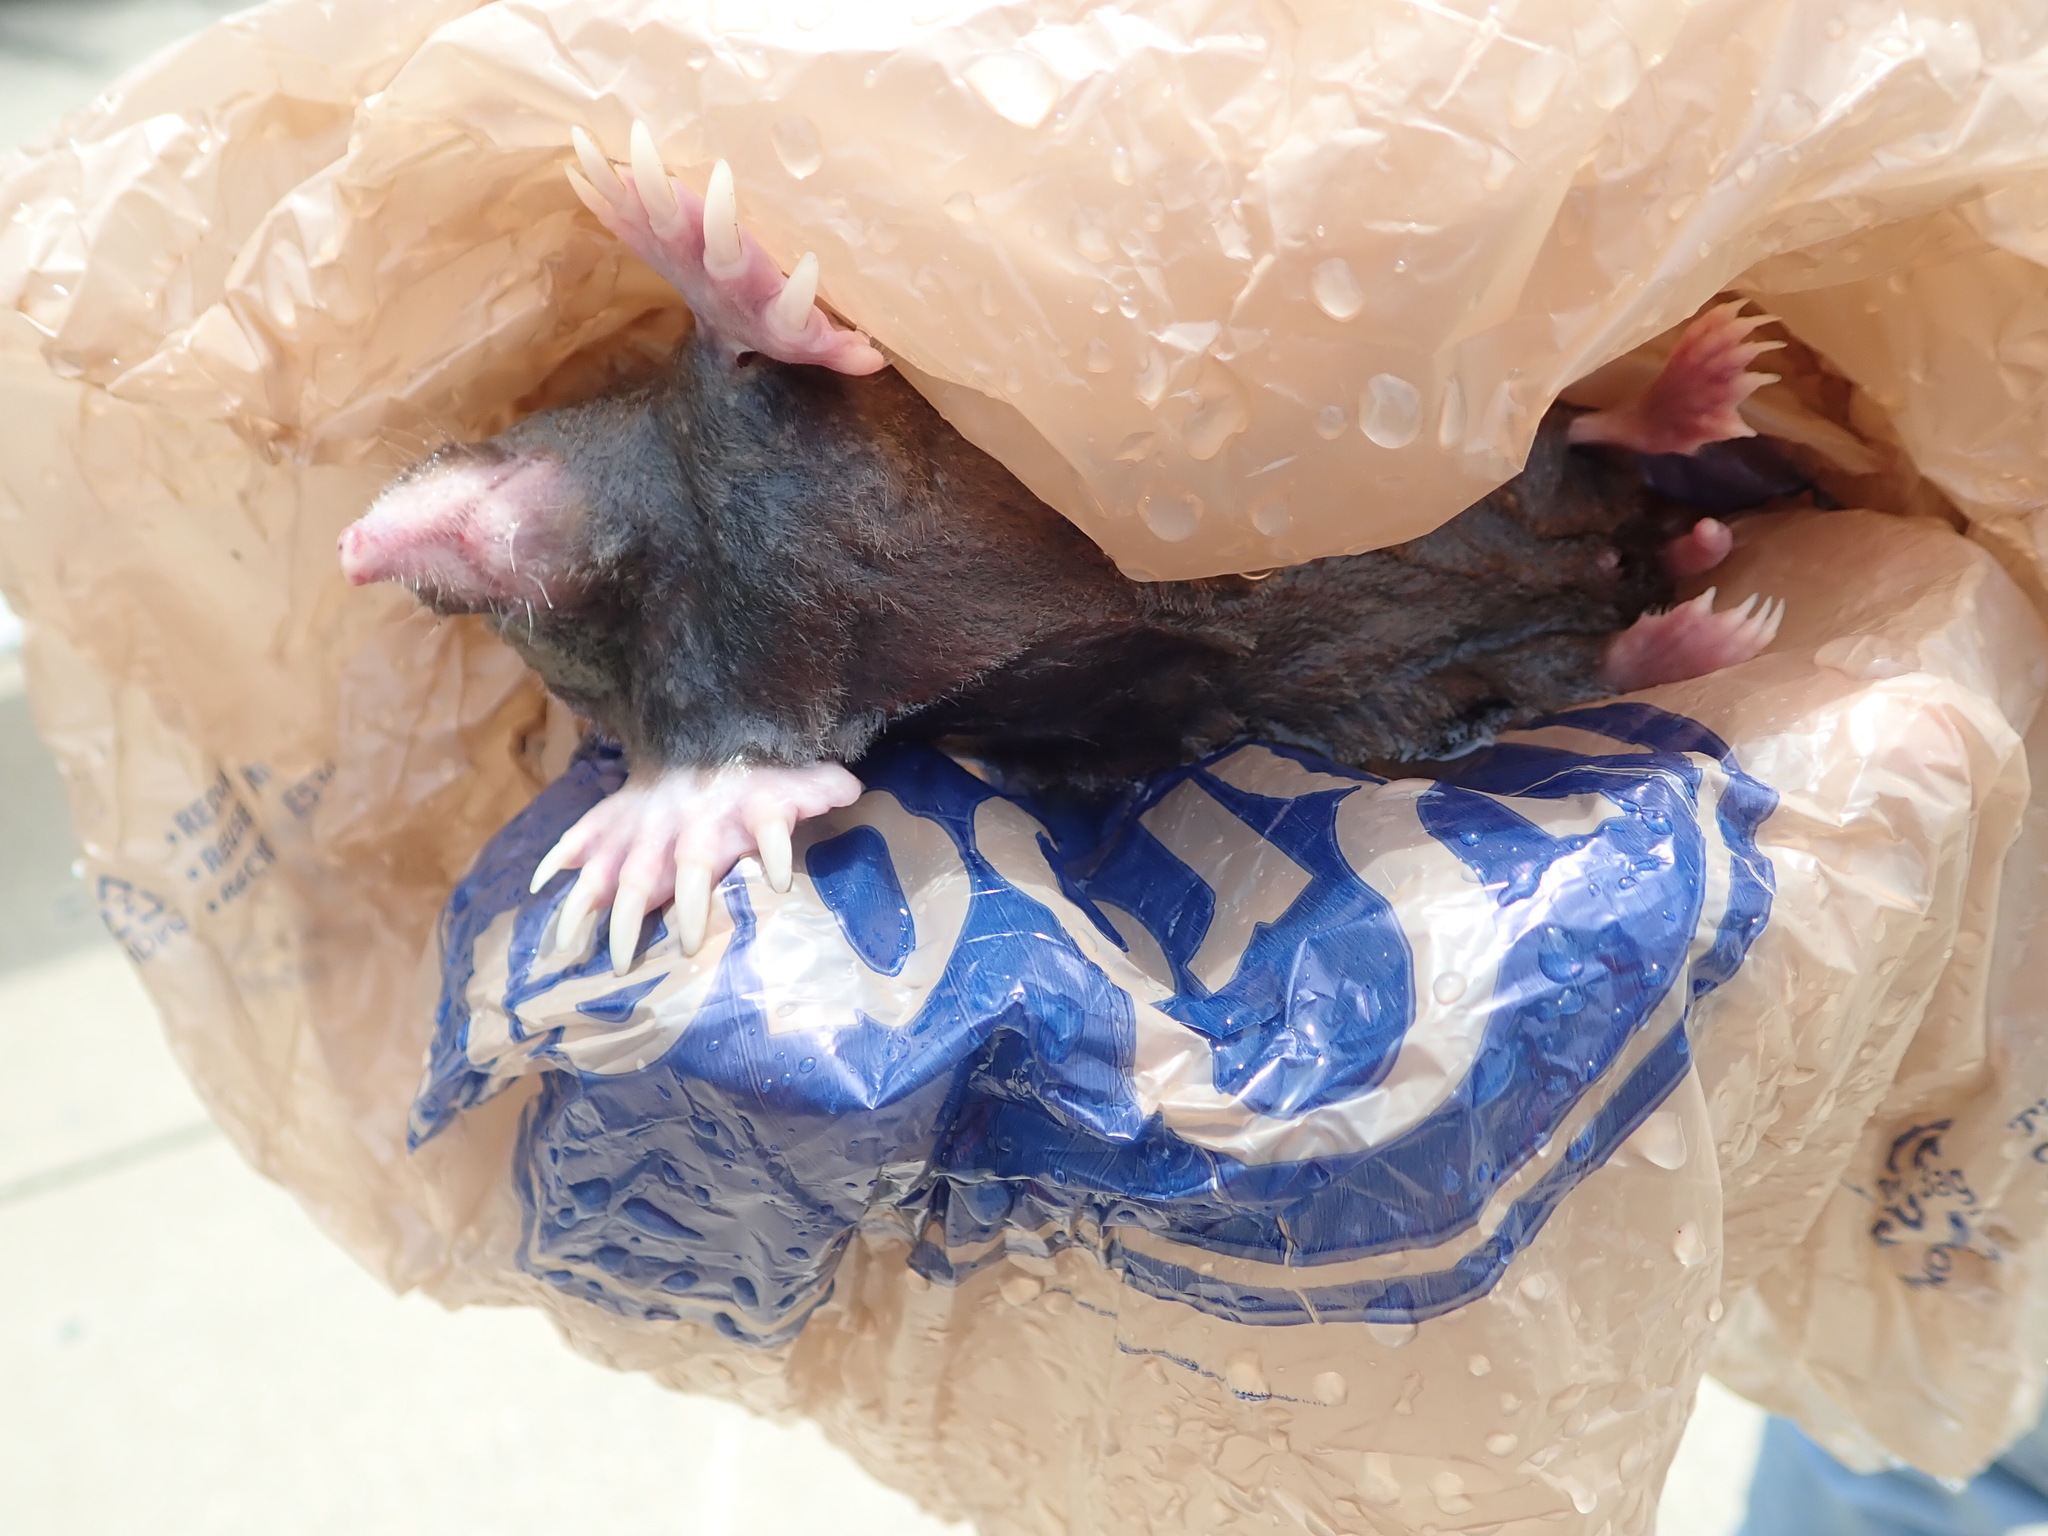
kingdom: Animalia
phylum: Chordata
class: Mammalia
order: Soricomorpha
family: Talpidae
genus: Scalopus
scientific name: Scalopus aquaticus
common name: Eastern mole
